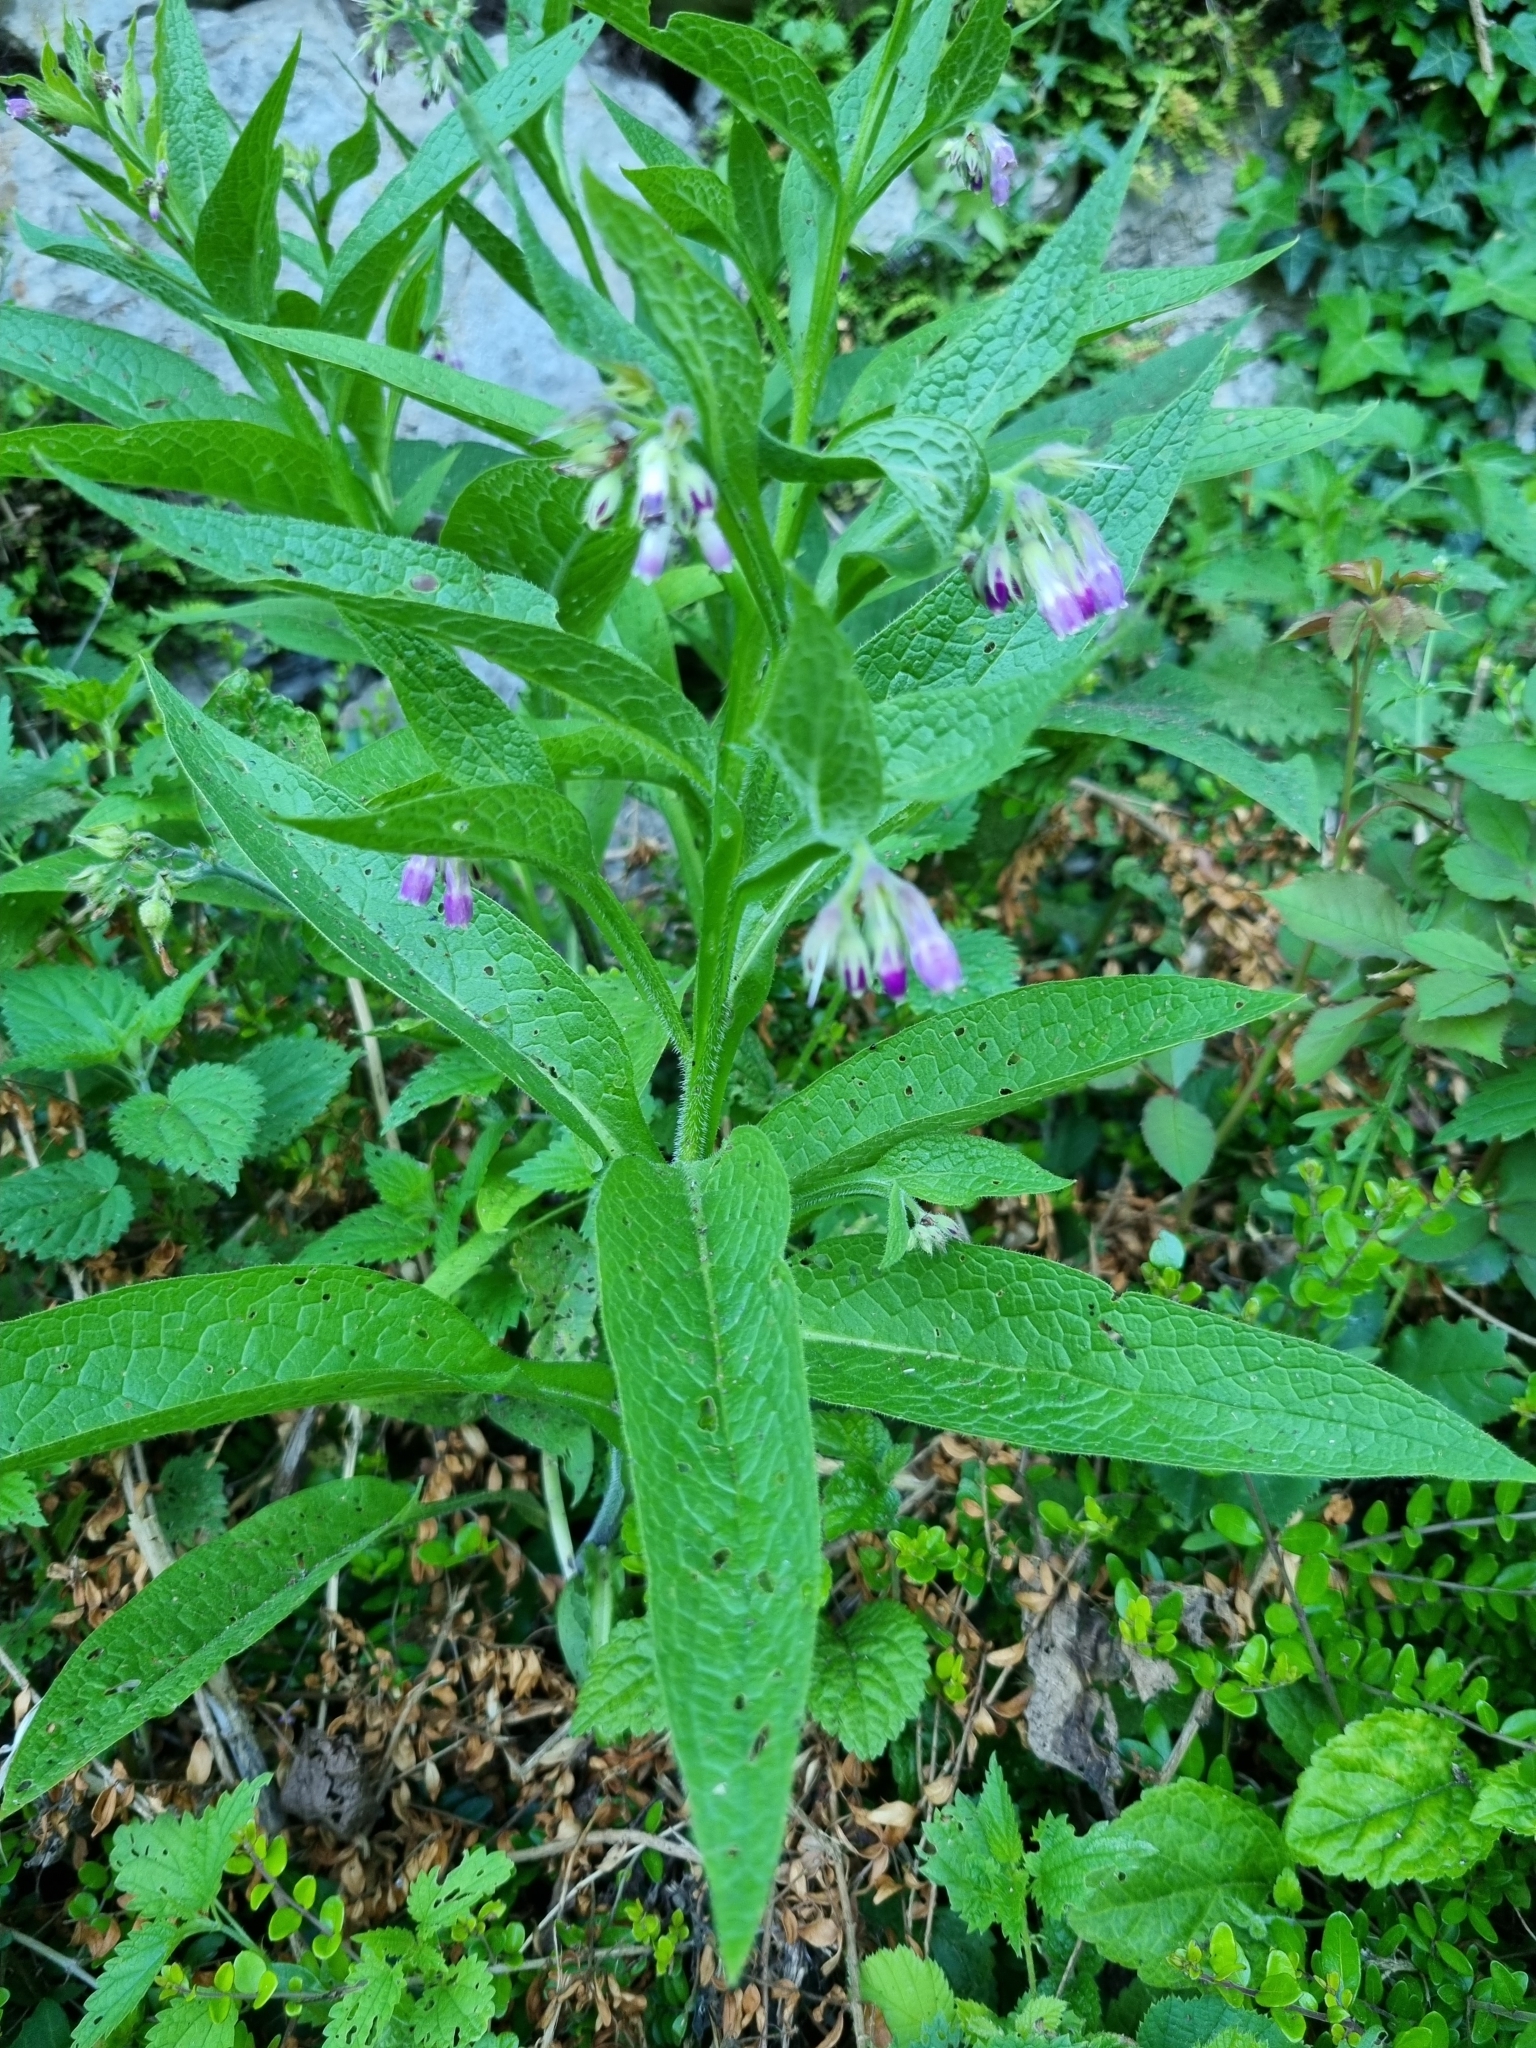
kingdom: Plantae
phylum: Tracheophyta
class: Magnoliopsida
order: Boraginales
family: Boraginaceae
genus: Symphytum
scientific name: Symphytum officinale
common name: Common comfrey
